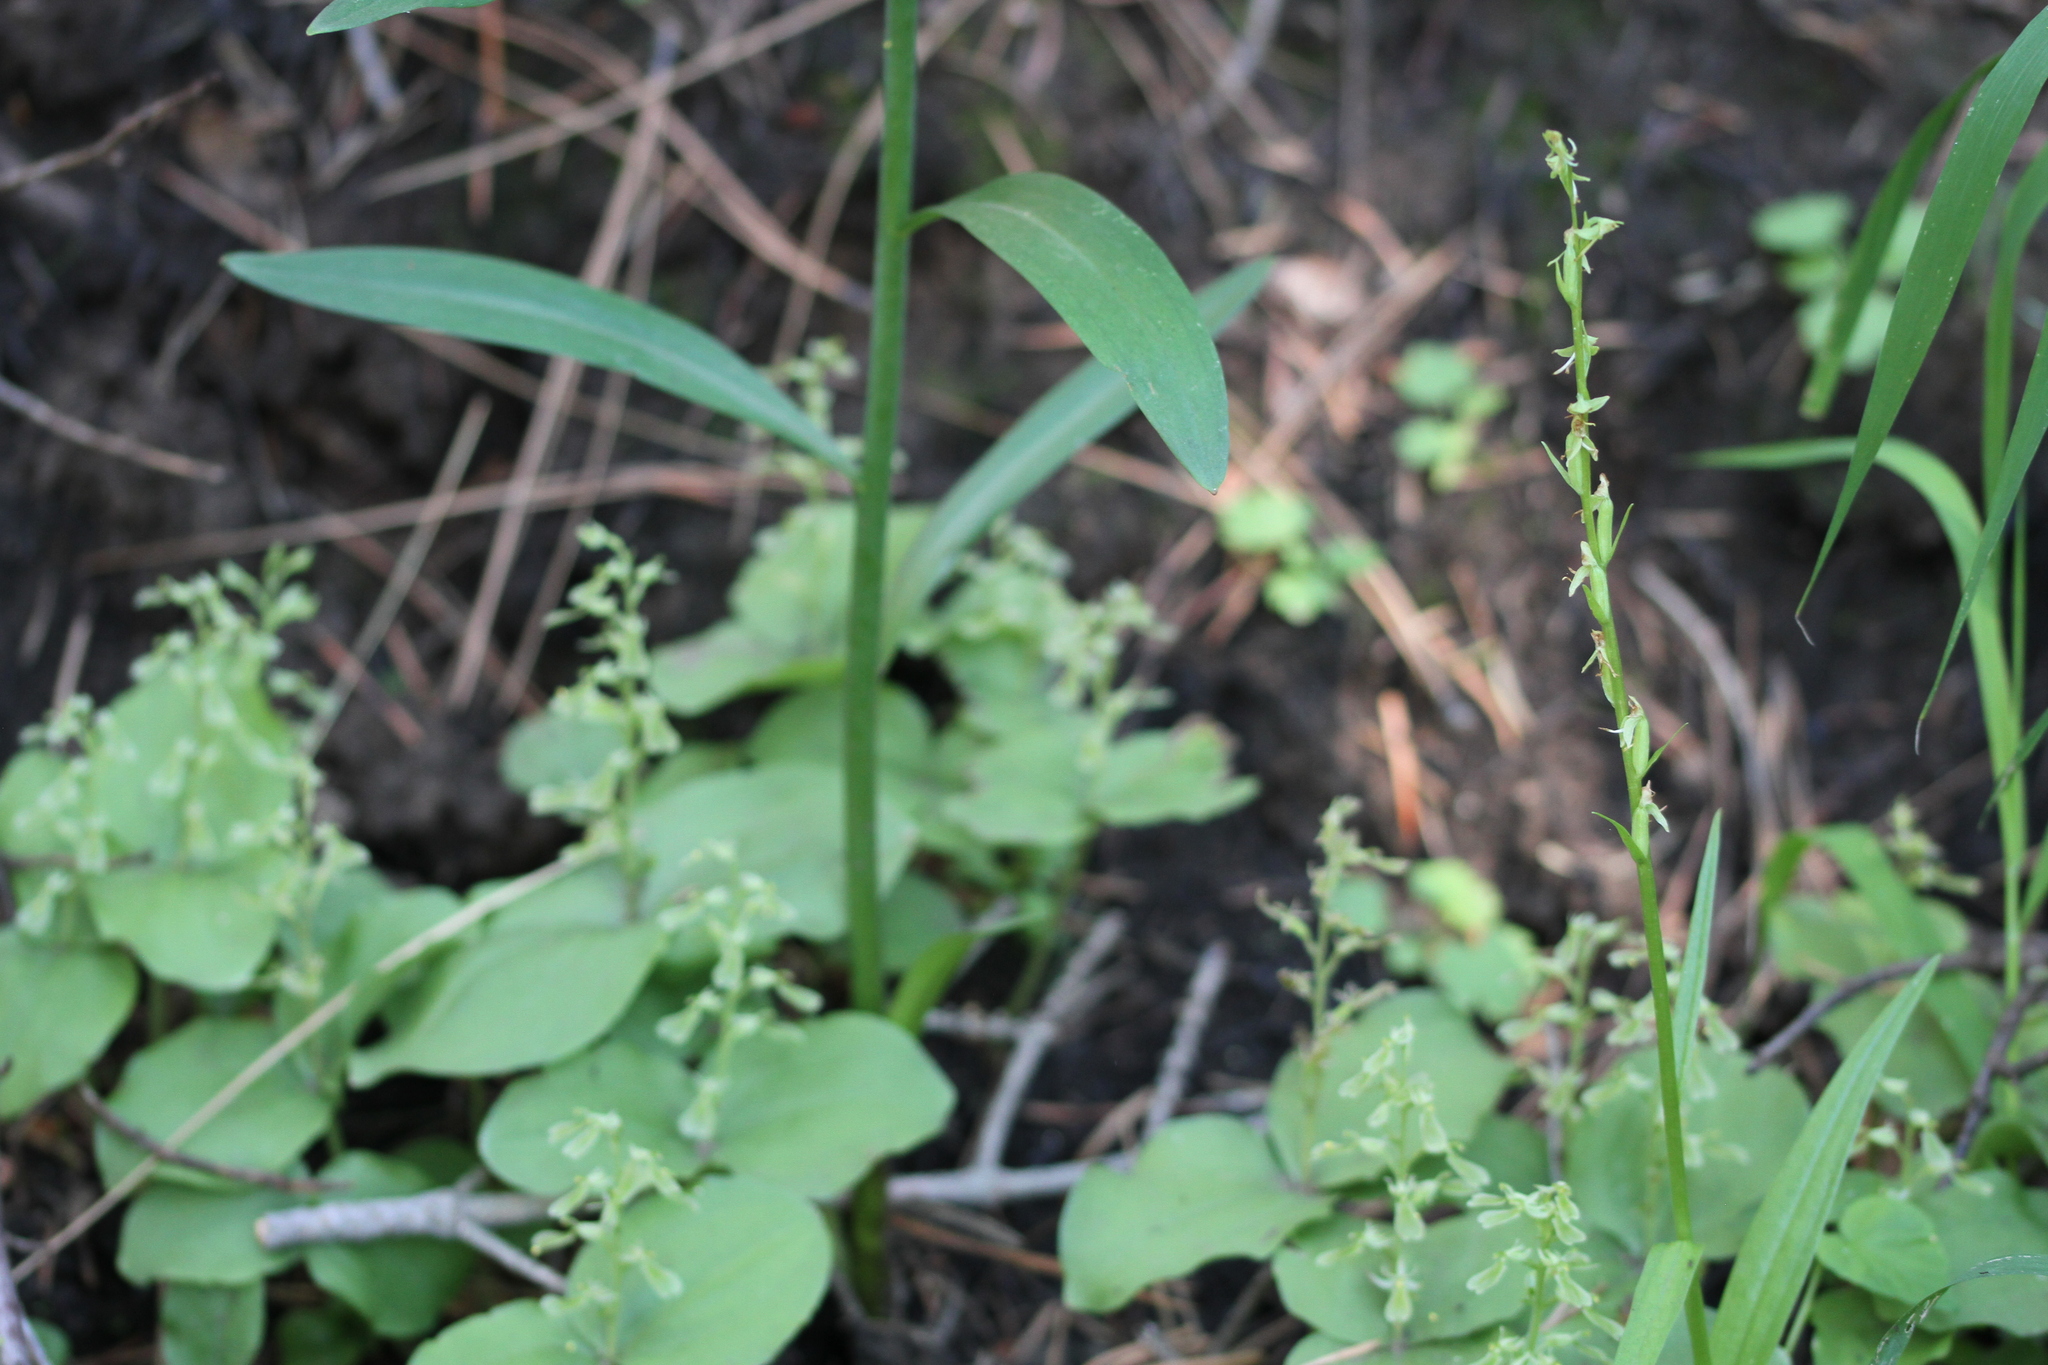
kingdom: Plantae
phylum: Tracheophyta
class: Liliopsida
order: Asparagales
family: Orchidaceae
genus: Platanthera
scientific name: Platanthera sparsiflora
